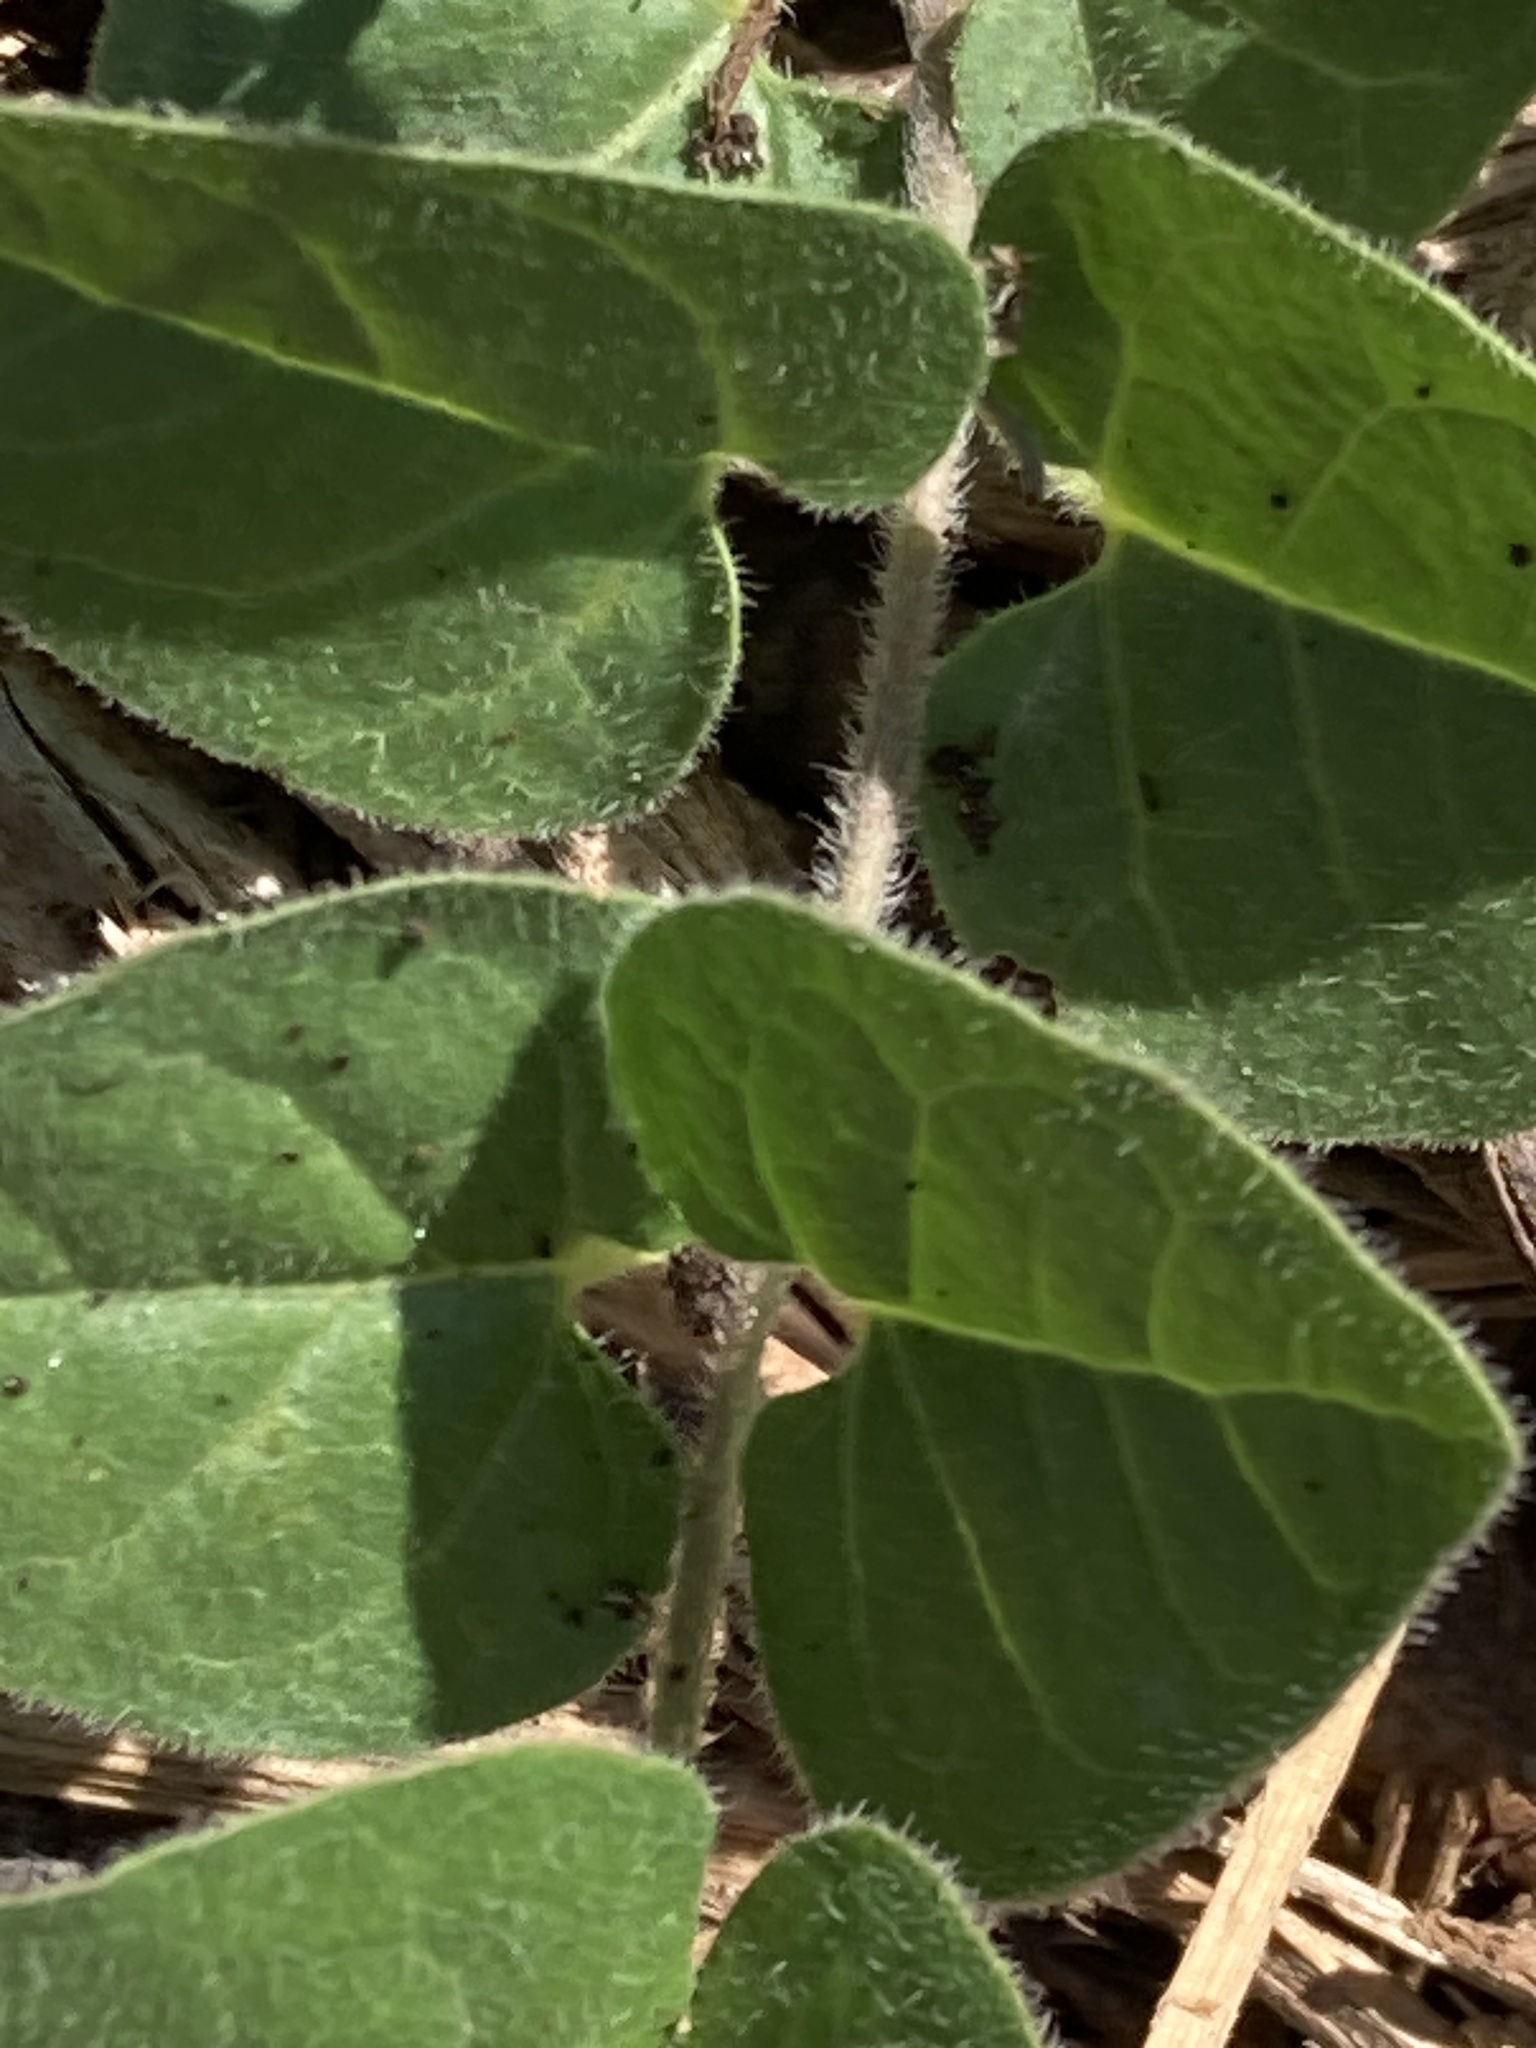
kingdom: Plantae
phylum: Tracheophyta
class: Magnoliopsida
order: Gentianales
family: Apocynaceae
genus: Chthamalia
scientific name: Chthamalia biflora
